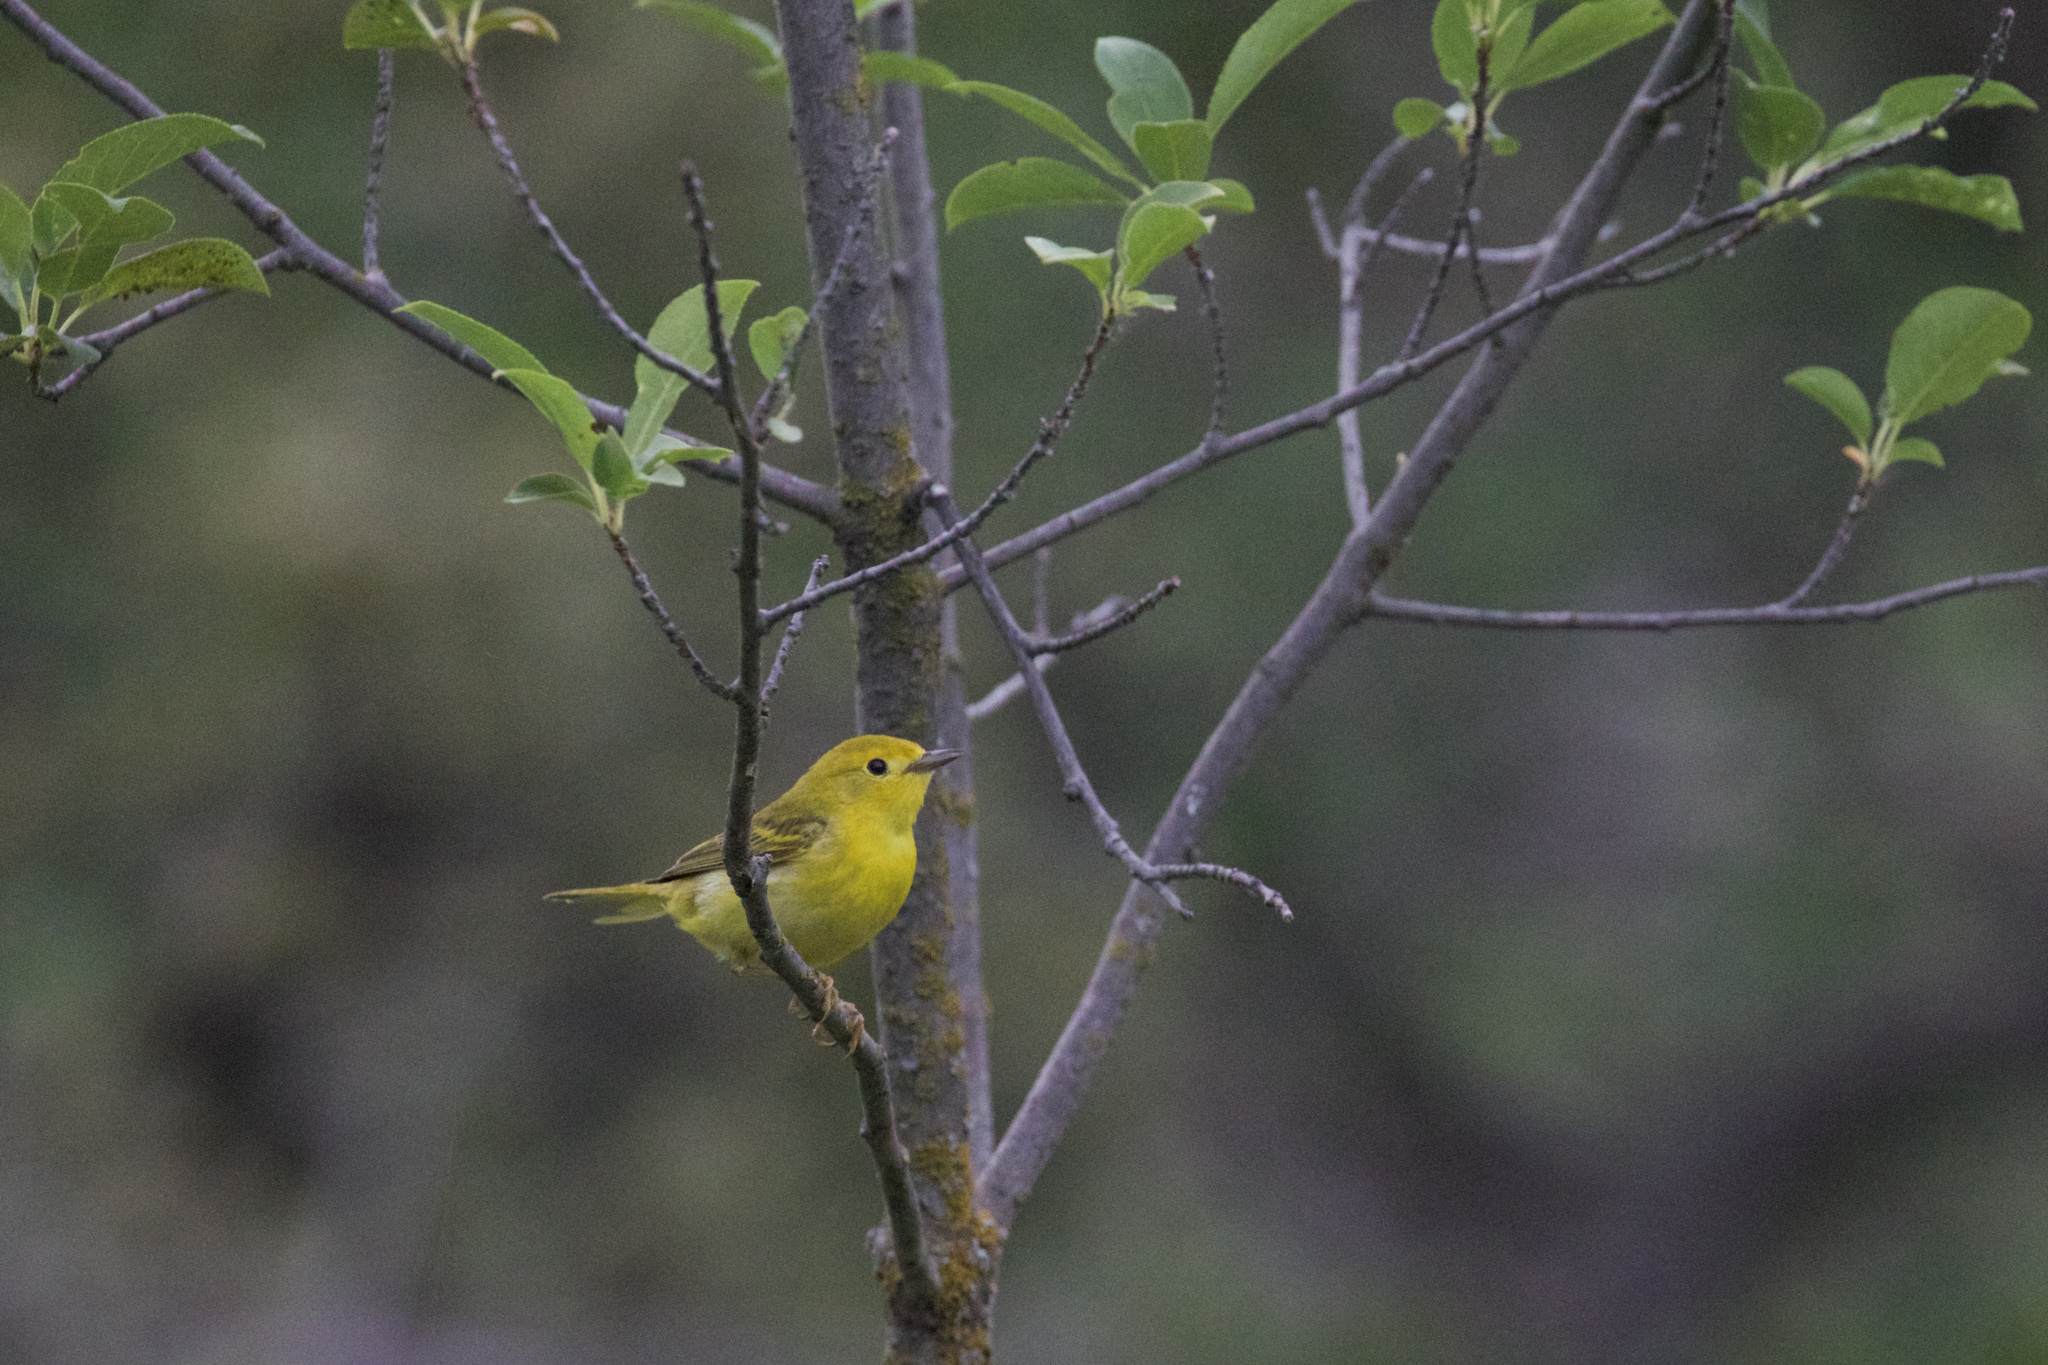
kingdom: Animalia
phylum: Chordata
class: Aves
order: Passeriformes
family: Parulidae
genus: Setophaga
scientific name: Setophaga petechia
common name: Yellow warbler
